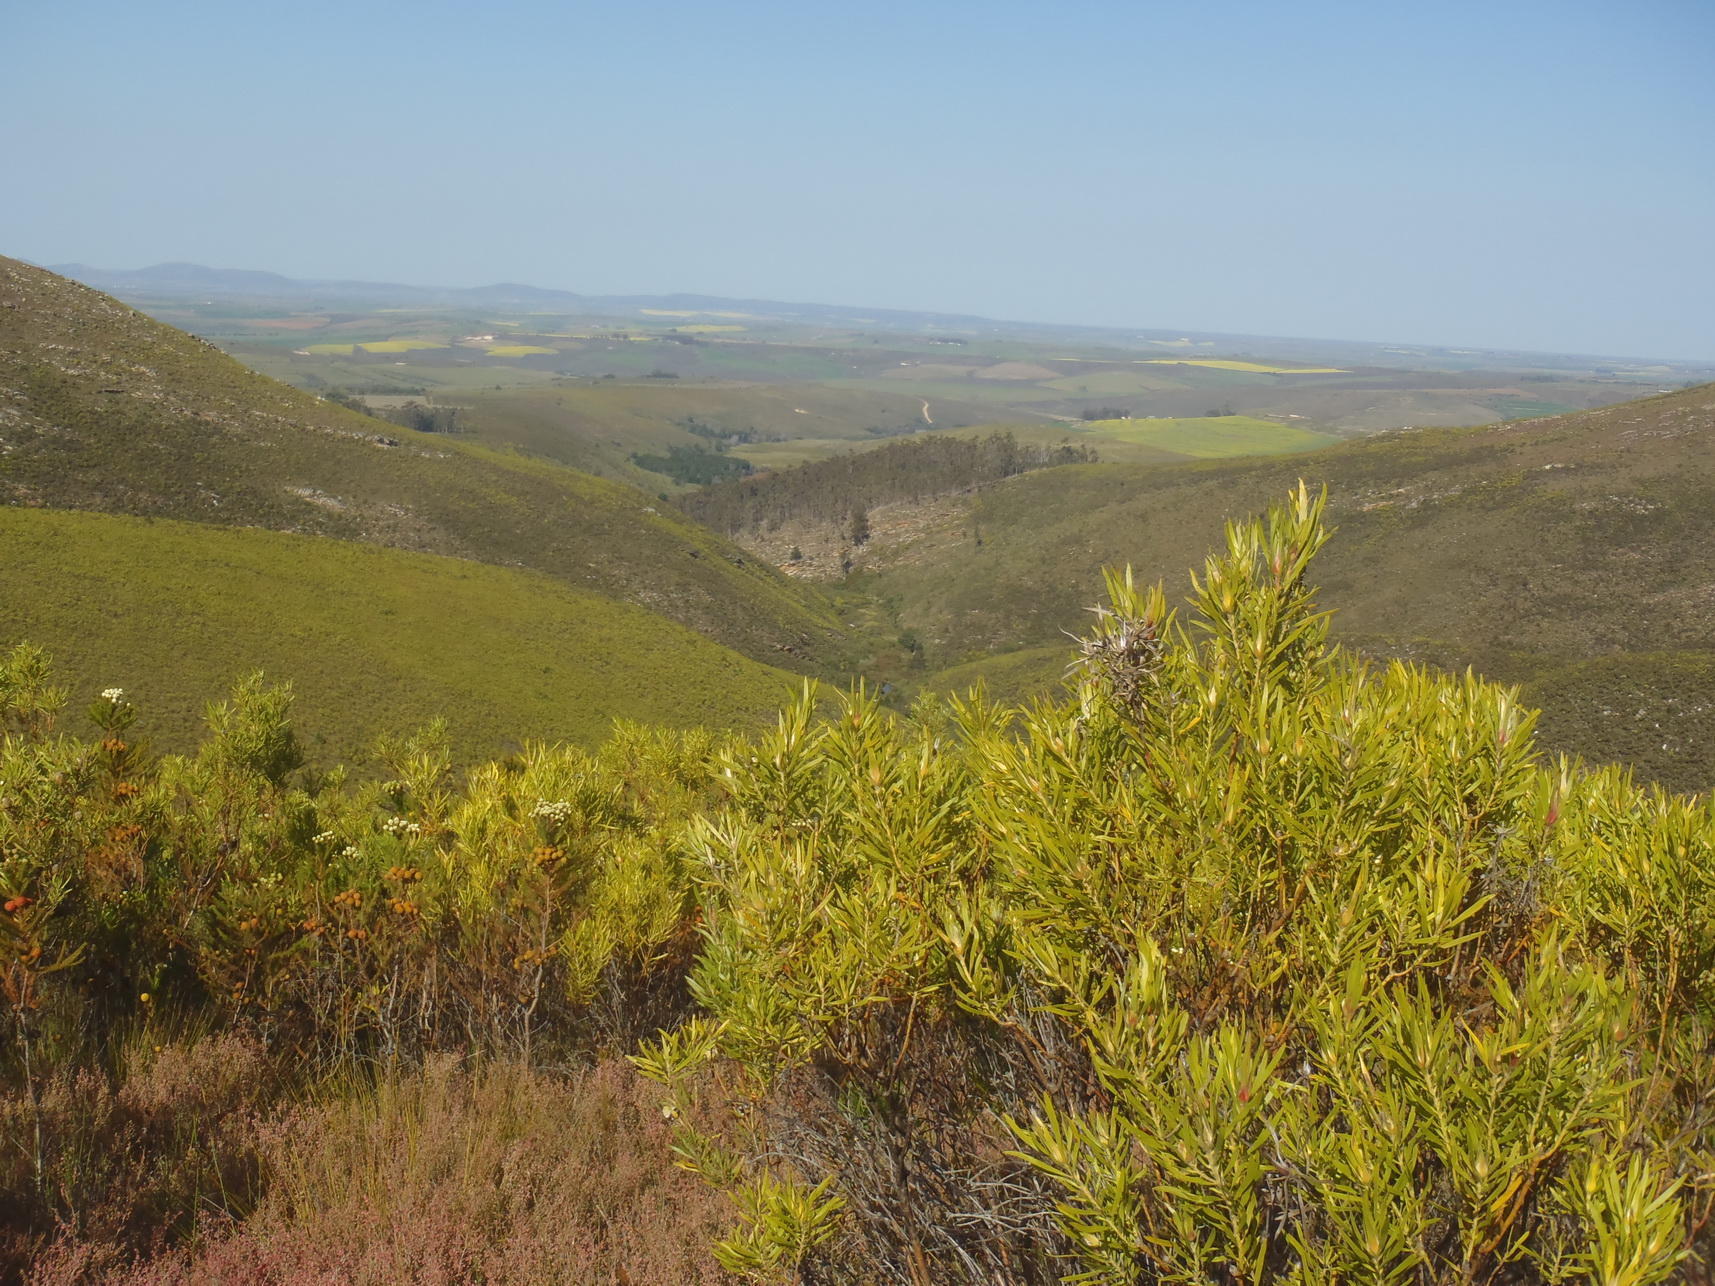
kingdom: Plantae
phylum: Tracheophyta
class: Magnoliopsida
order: Proteales
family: Proteaceae
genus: Leucadendron
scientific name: Leucadendron eucalyptifolium
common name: Gum-leaved conebush
